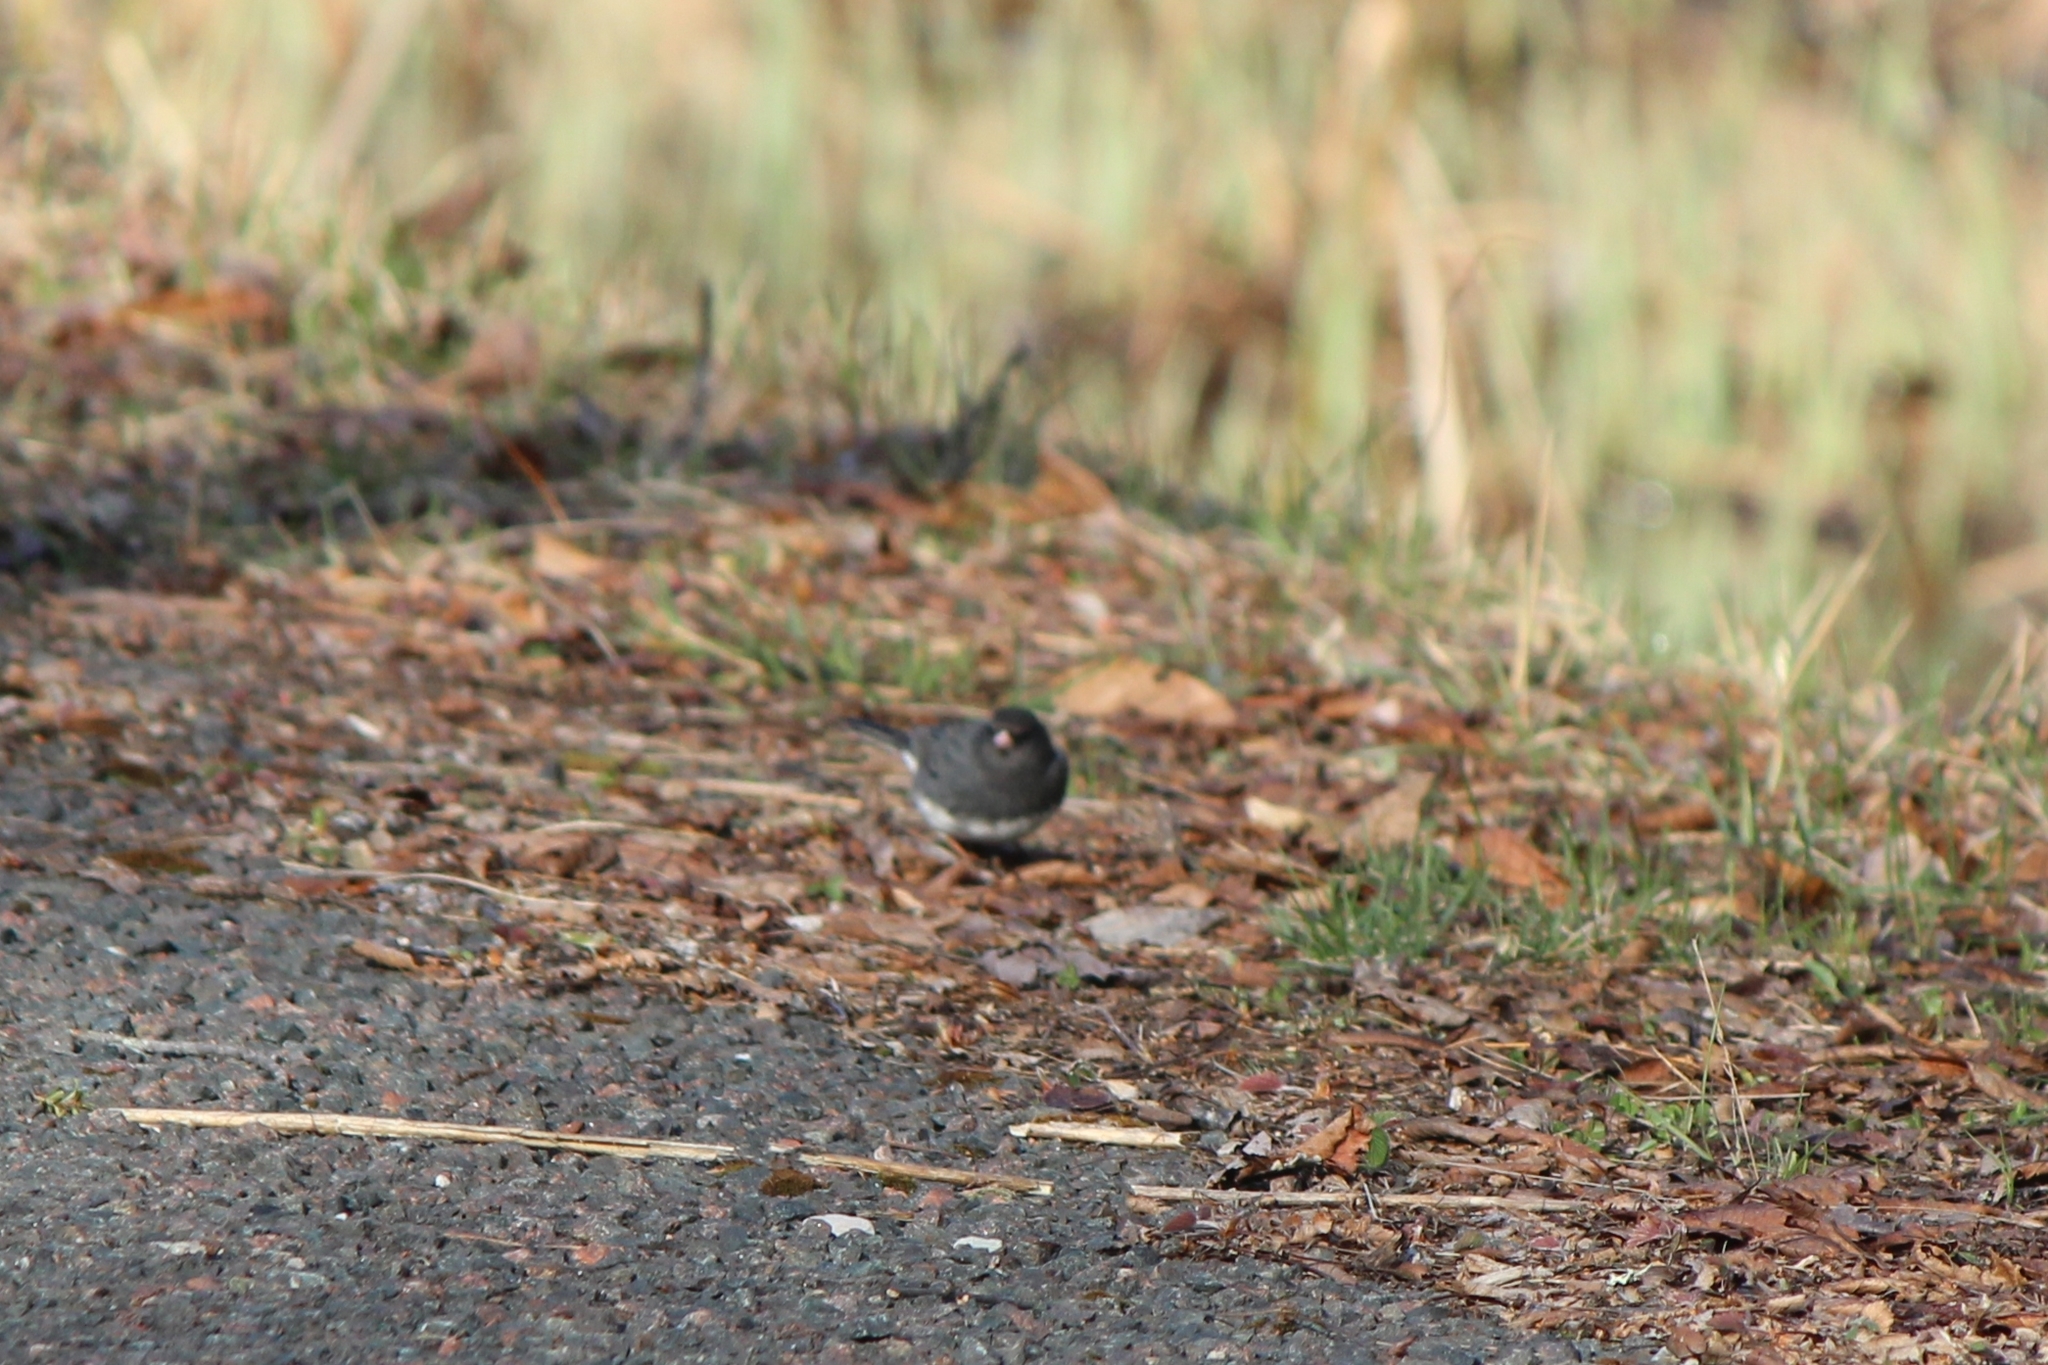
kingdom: Animalia
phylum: Chordata
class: Aves
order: Passeriformes
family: Passerellidae
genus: Junco
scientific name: Junco hyemalis
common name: Dark-eyed junco
